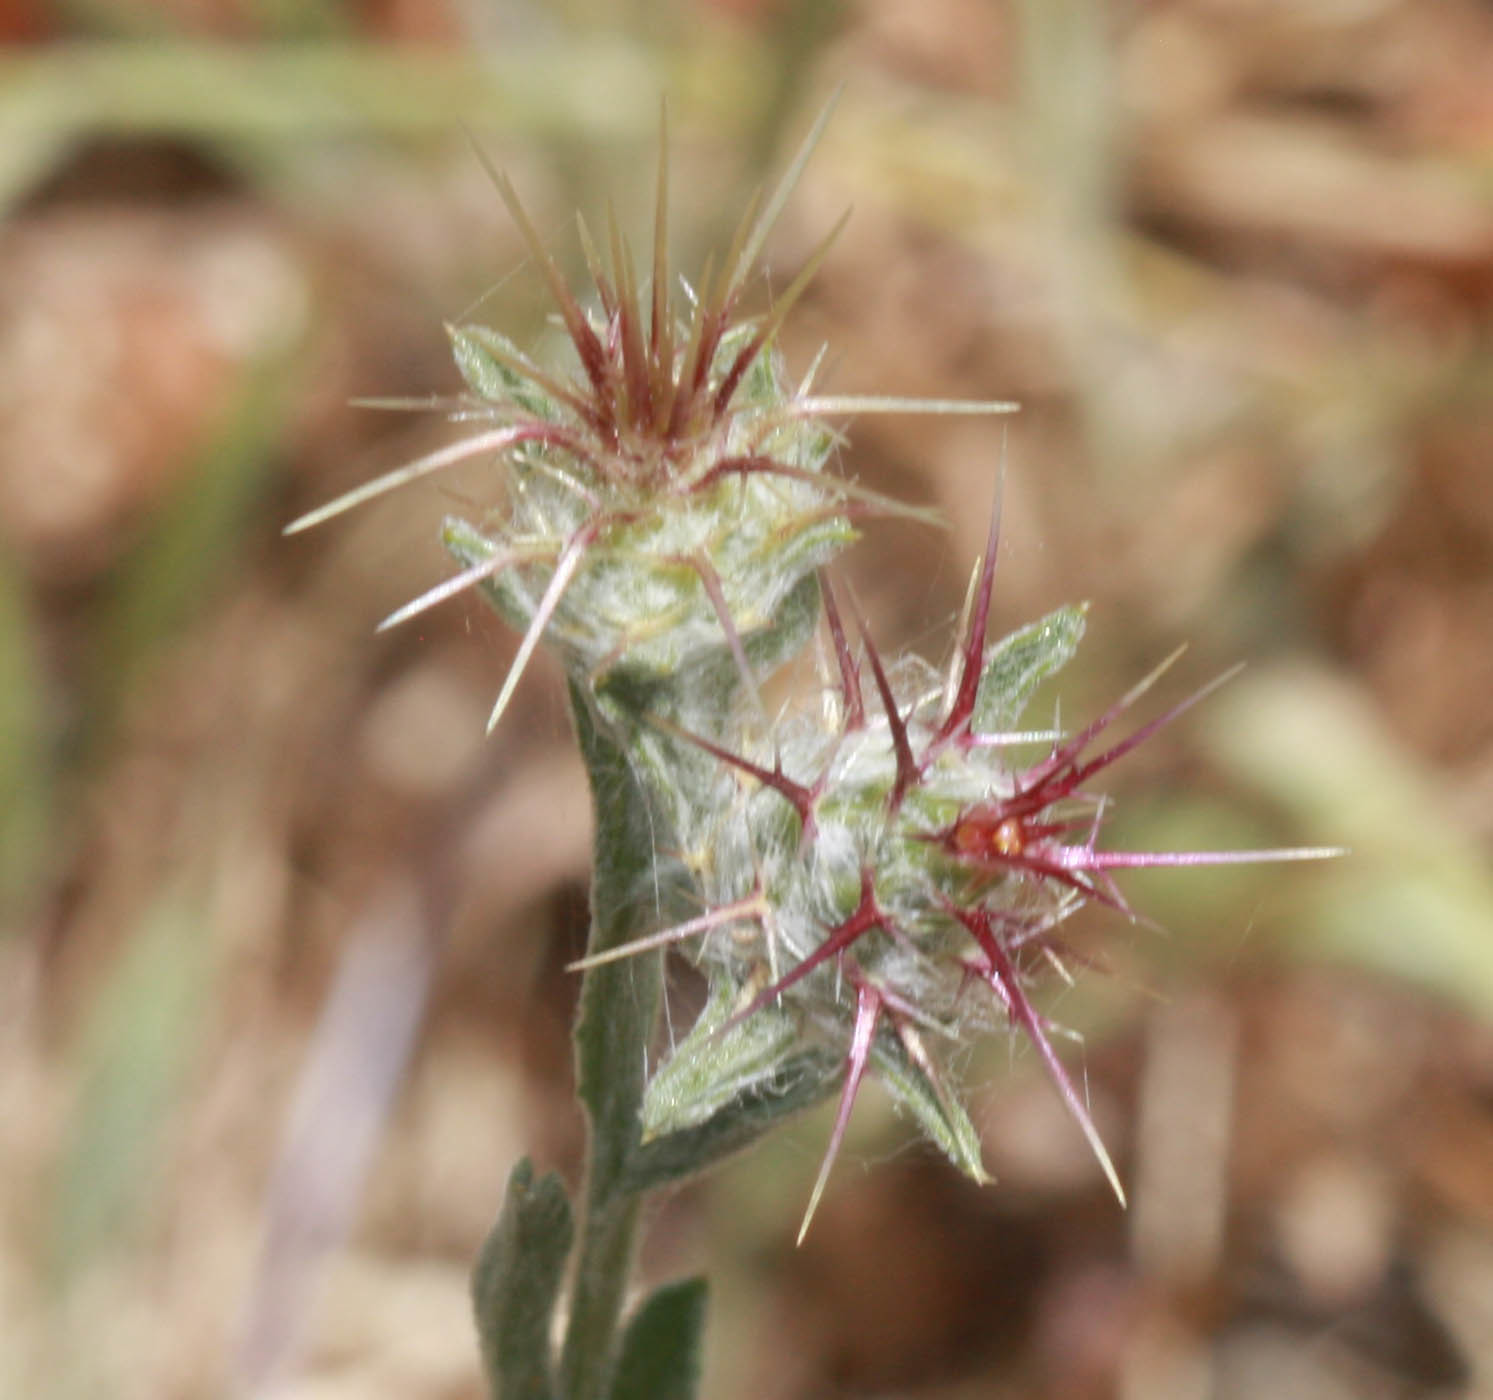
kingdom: Plantae
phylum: Tracheophyta
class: Magnoliopsida
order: Asterales
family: Asteraceae
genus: Centaurea
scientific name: Centaurea melitensis
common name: Maltese star-thistle
